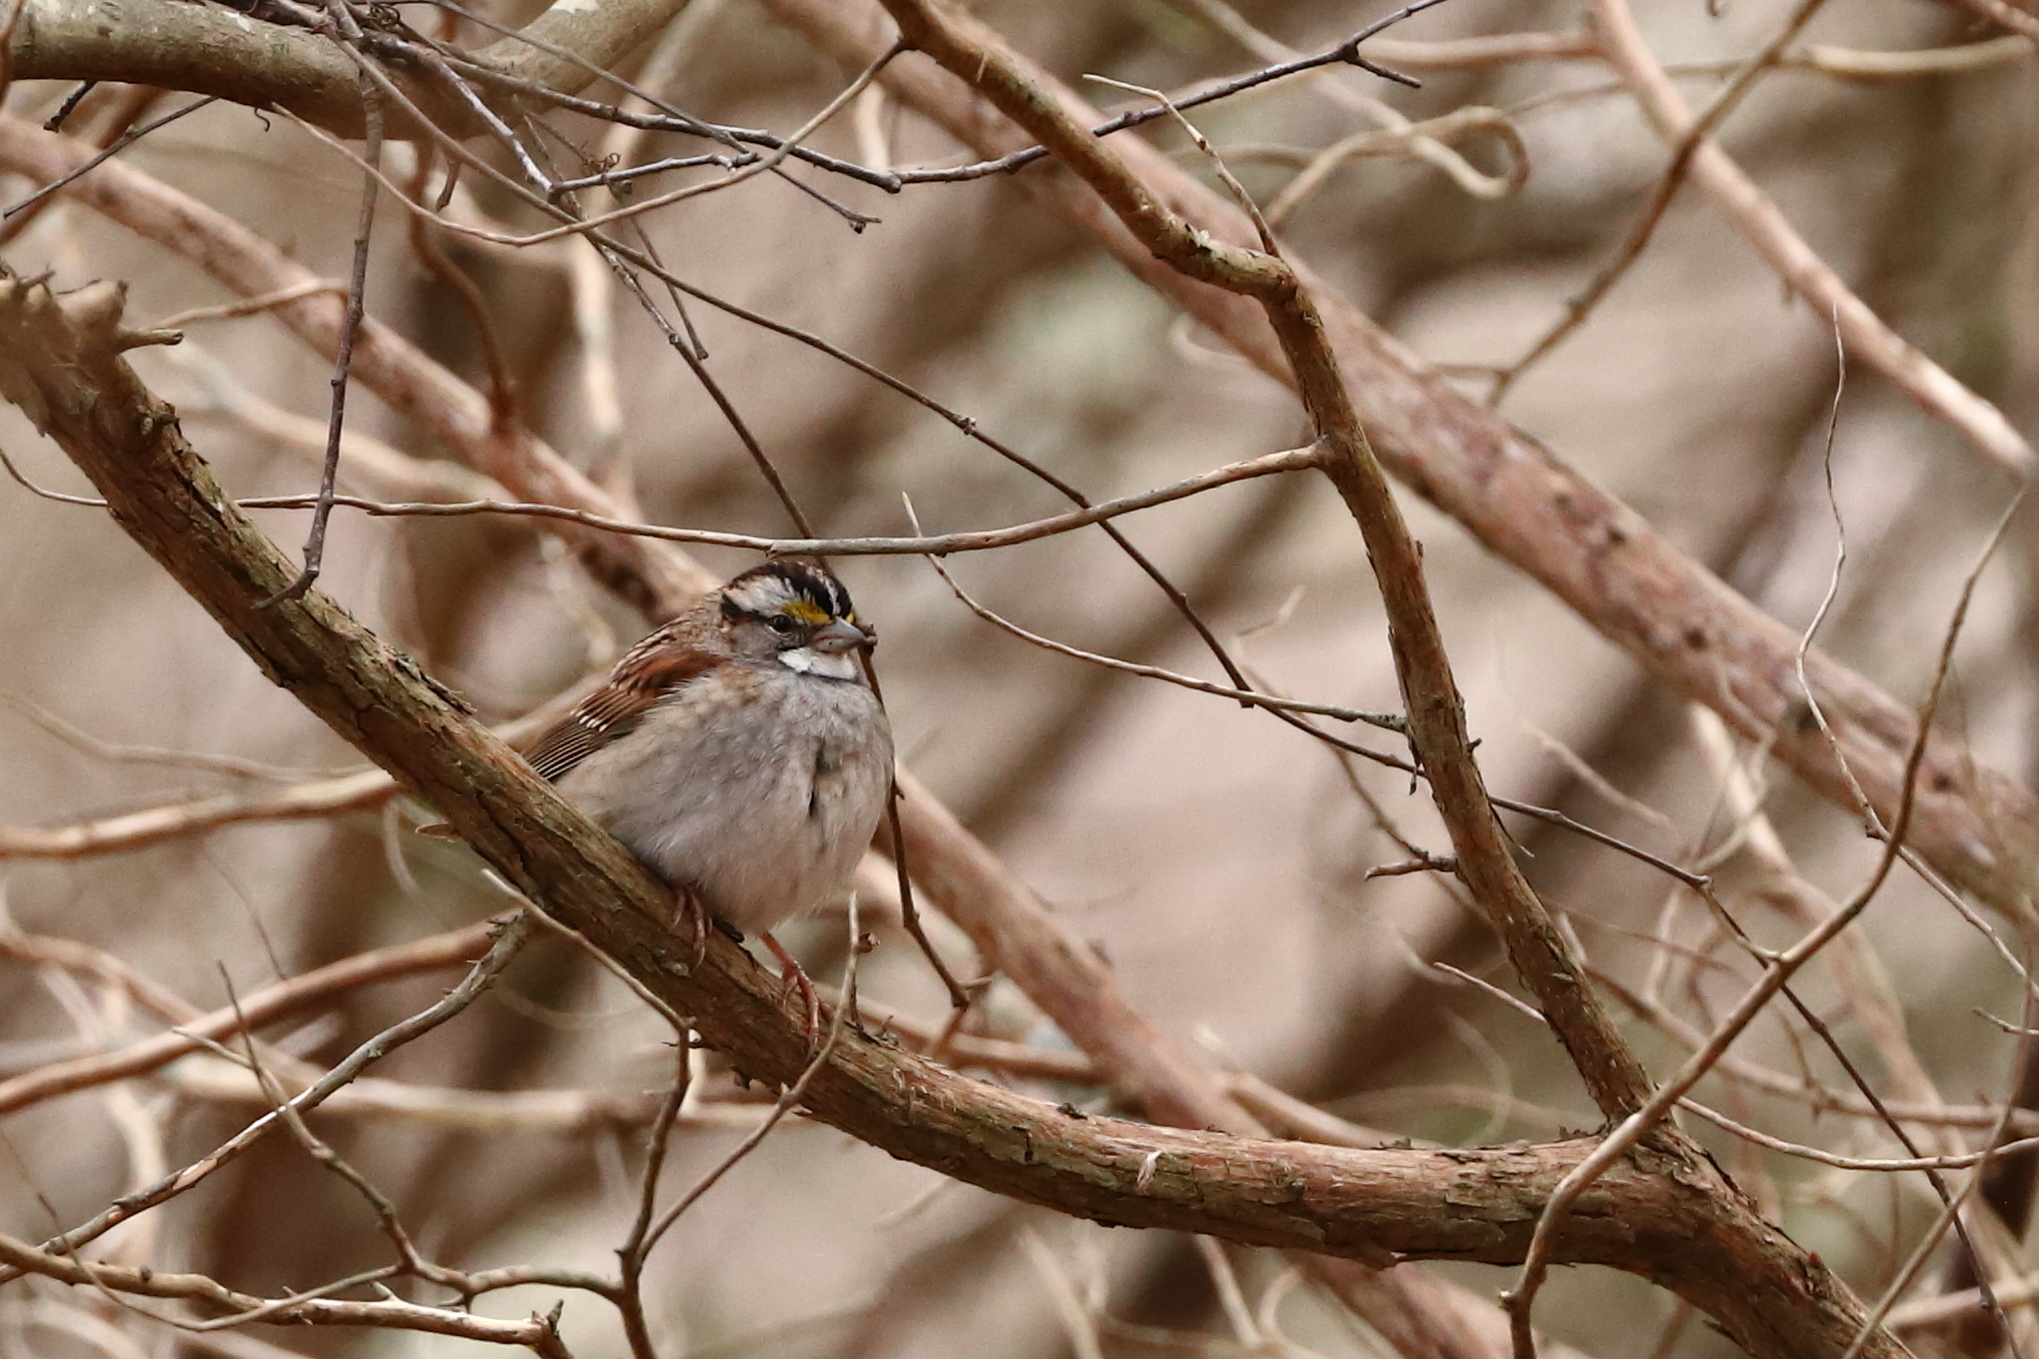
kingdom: Animalia
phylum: Chordata
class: Aves
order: Passeriformes
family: Passerellidae
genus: Zonotrichia
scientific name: Zonotrichia albicollis
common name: White-throated sparrow
